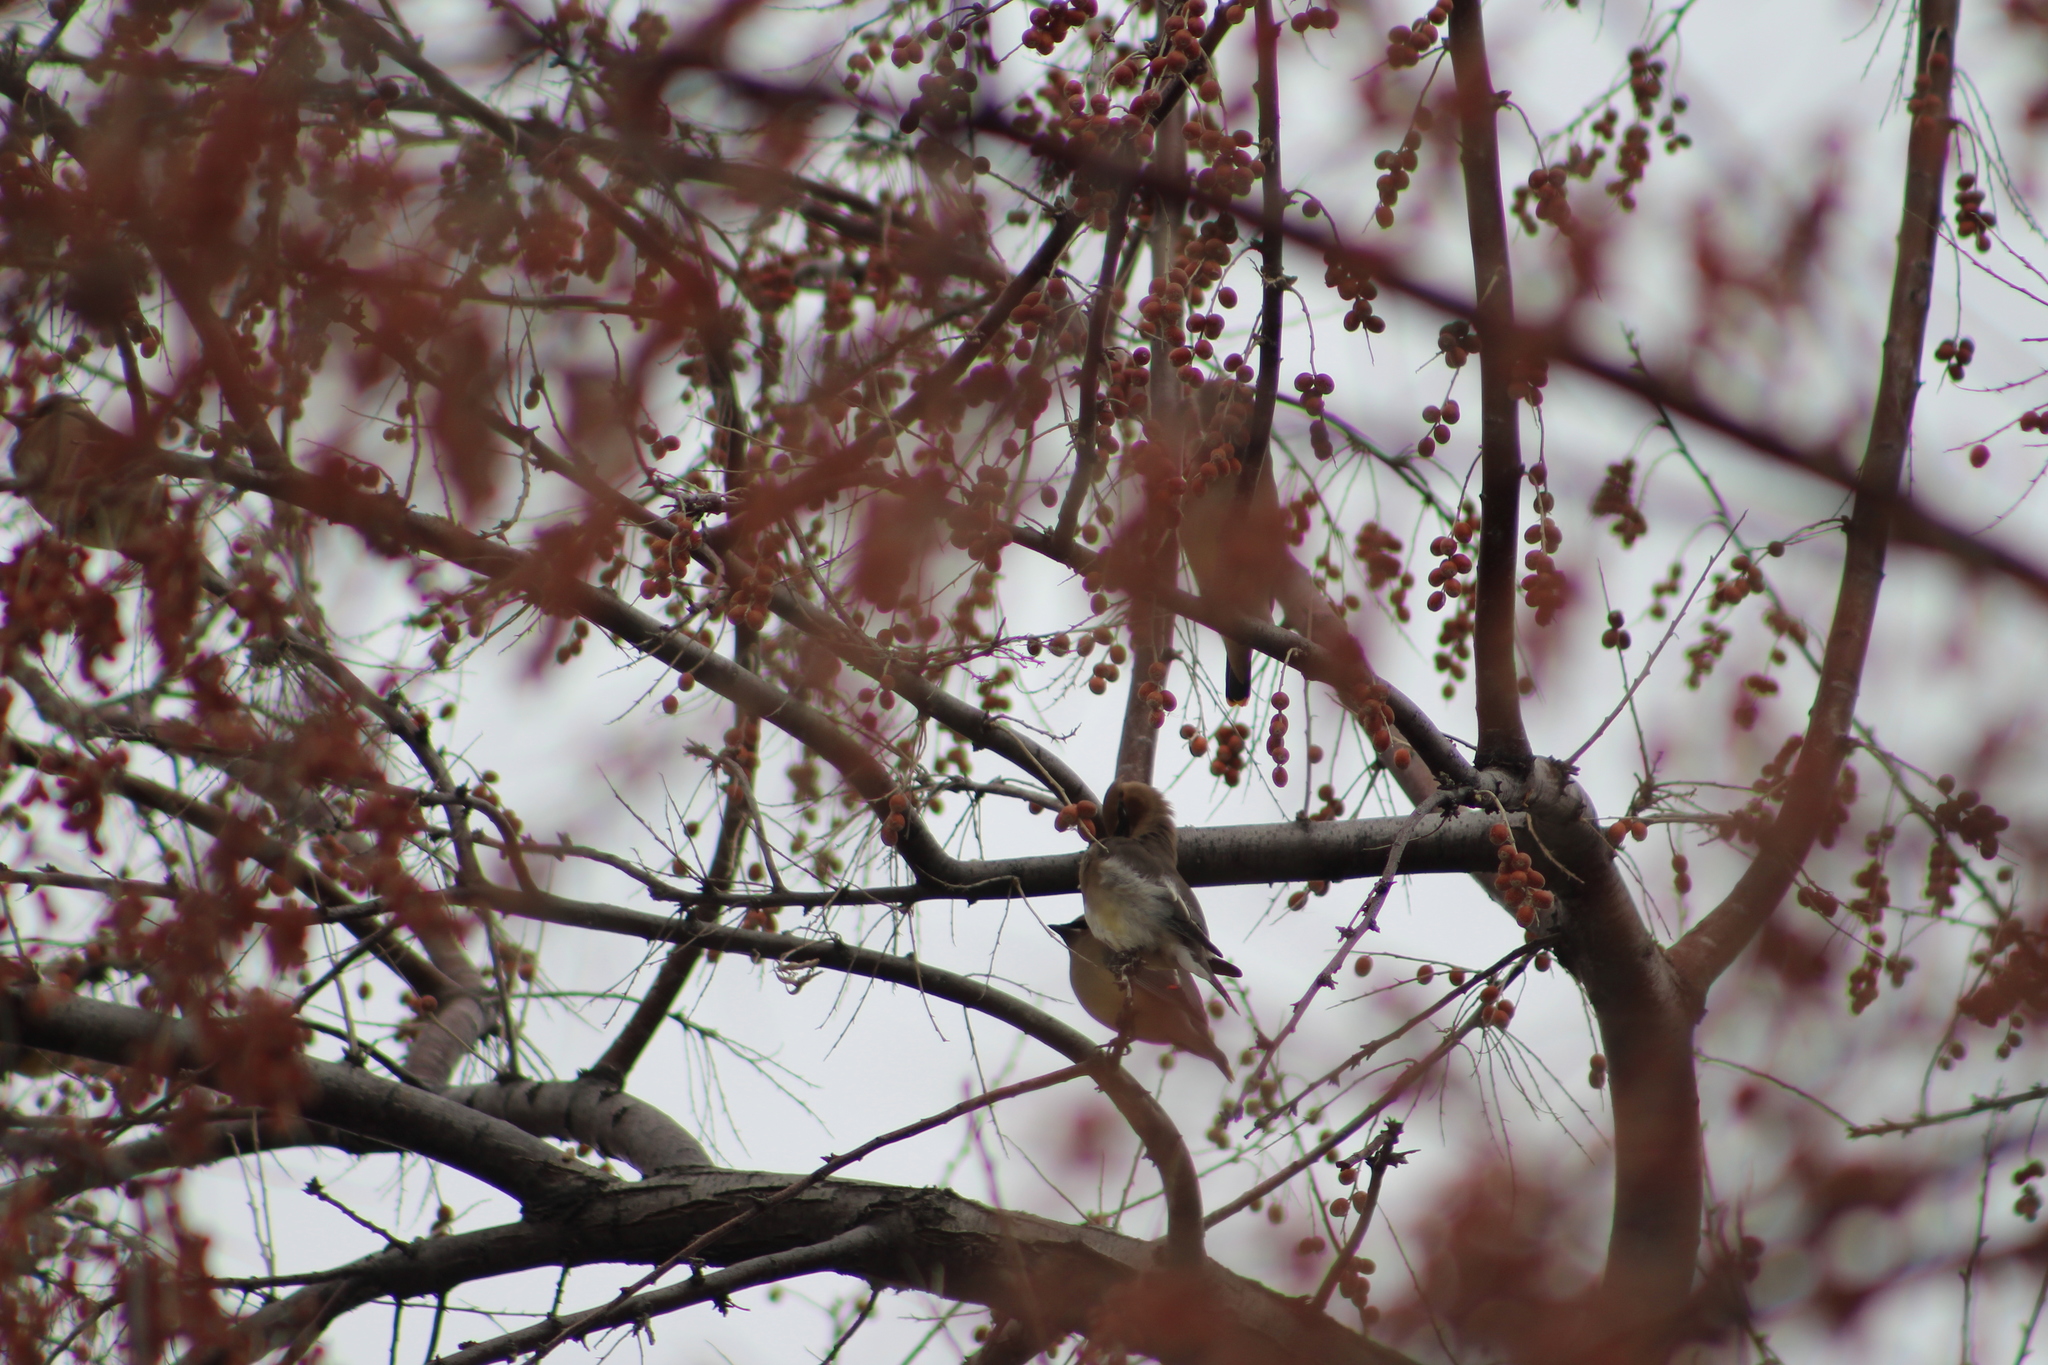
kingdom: Animalia
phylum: Chordata
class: Aves
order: Passeriformes
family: Bombycillidae
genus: Bombycilla
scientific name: Bombycilla cedrorum
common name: Cedar waxwing
